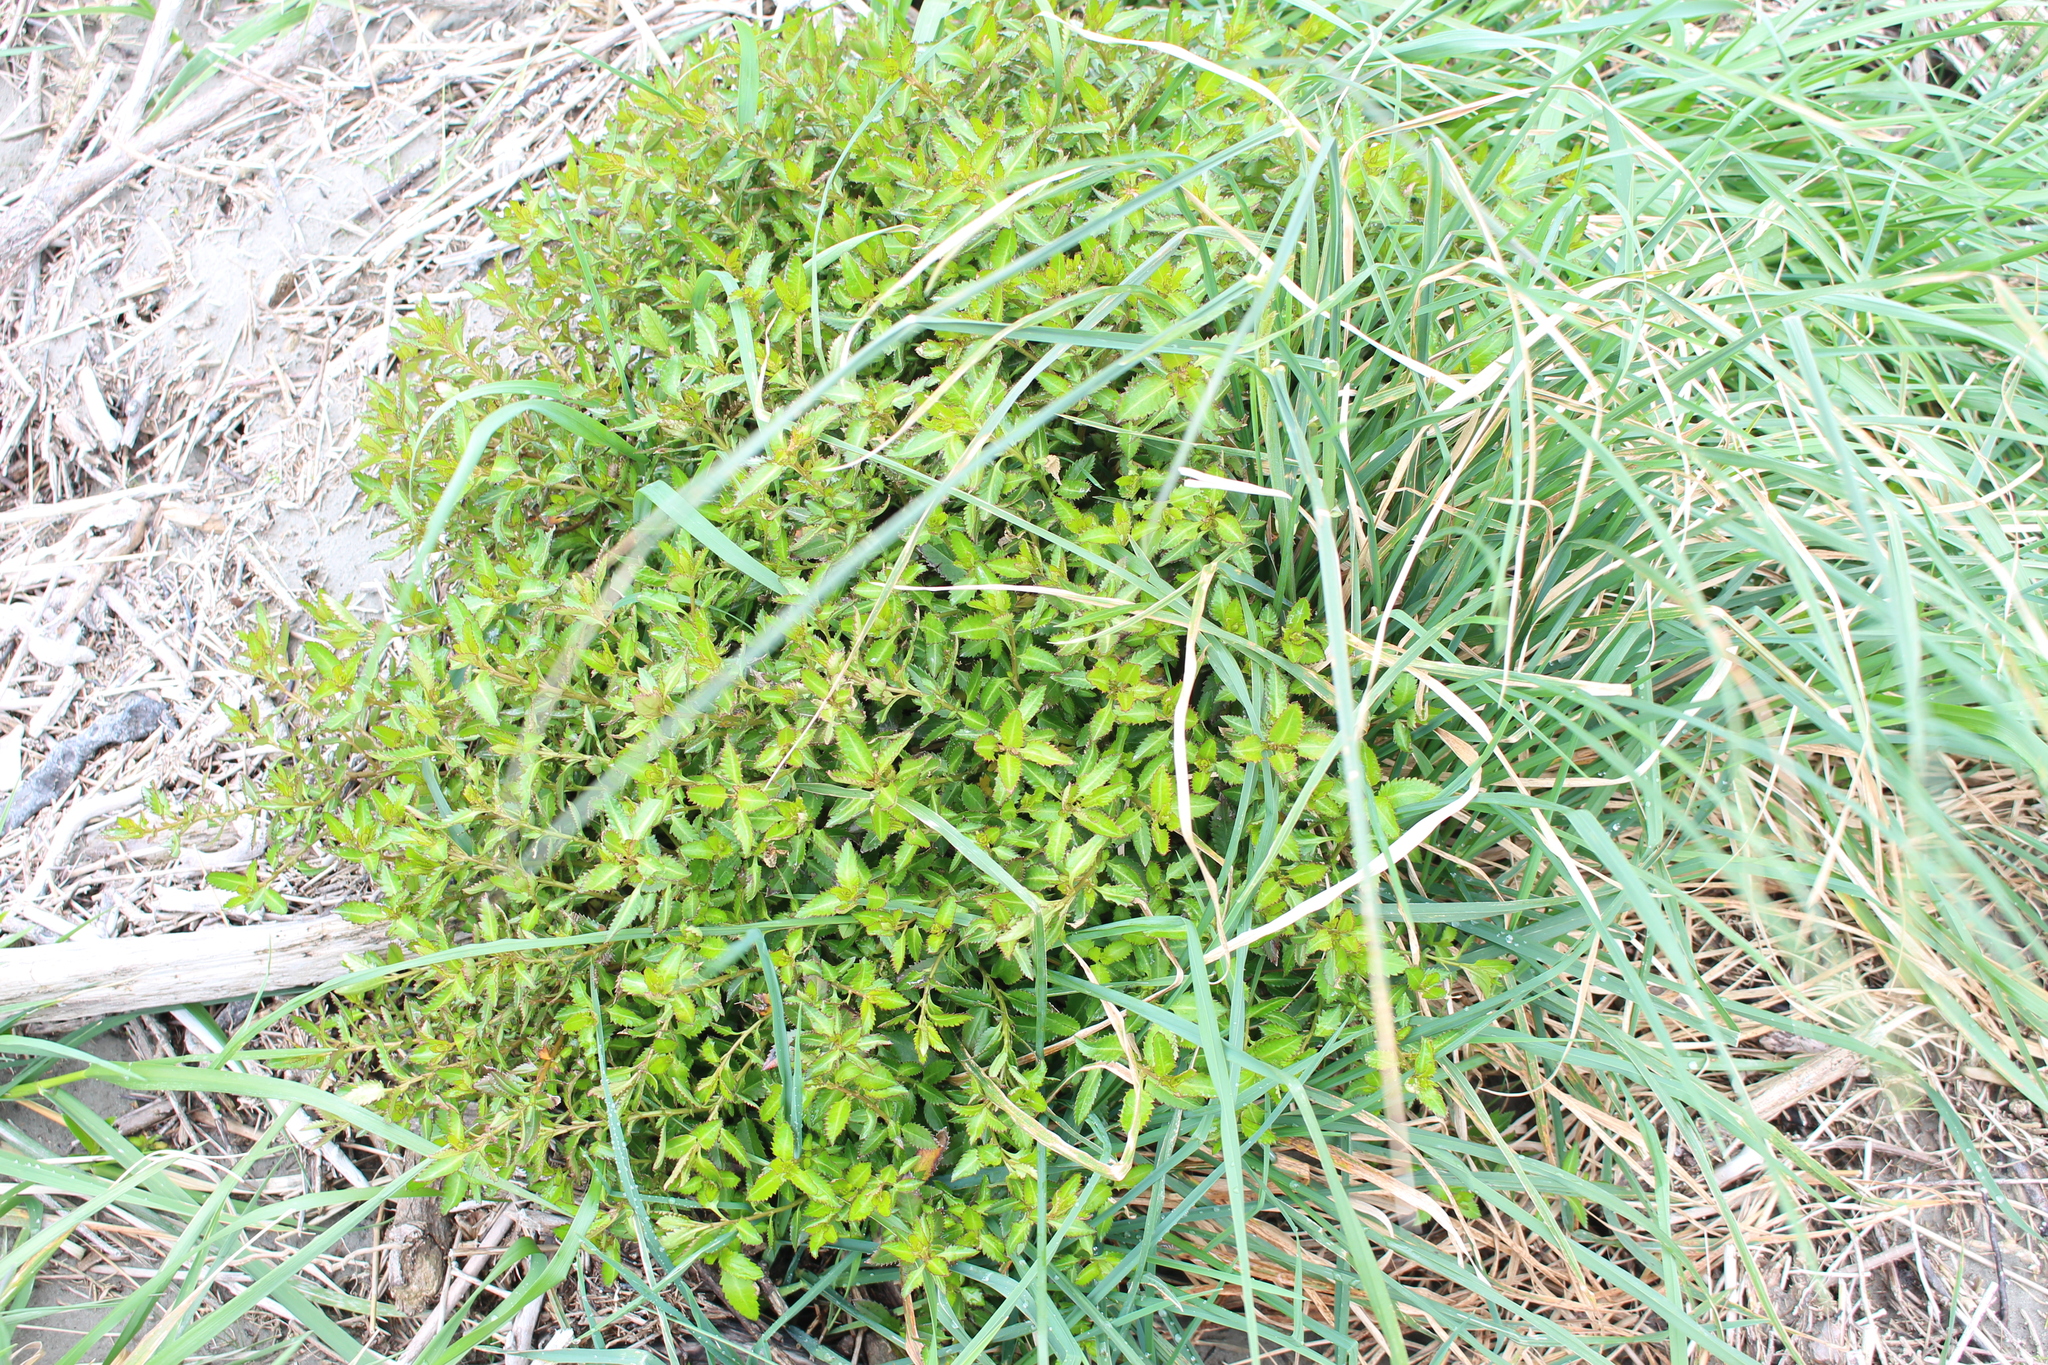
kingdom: Plantae
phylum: Tracheophyta
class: Magnoliopsida
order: Saxifragales
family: Haloragaceae
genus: Haloragis
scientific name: Haloragis erecta
